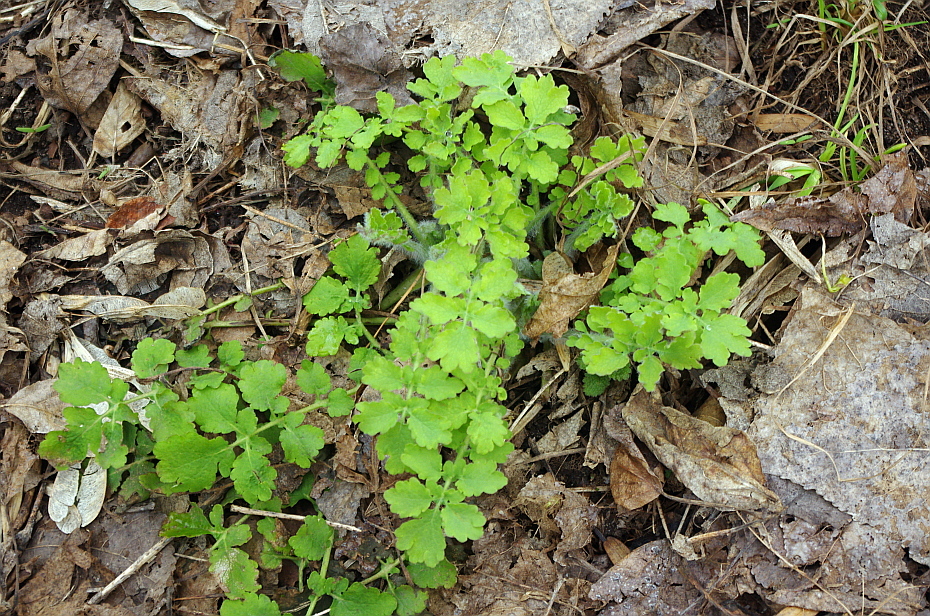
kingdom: Plantae
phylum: Tracheophyta
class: Magnoliopsida
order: Ranunculales
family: Papaveraceae
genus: Chelidonium
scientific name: Chelidonium majus
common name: Greater celandine
